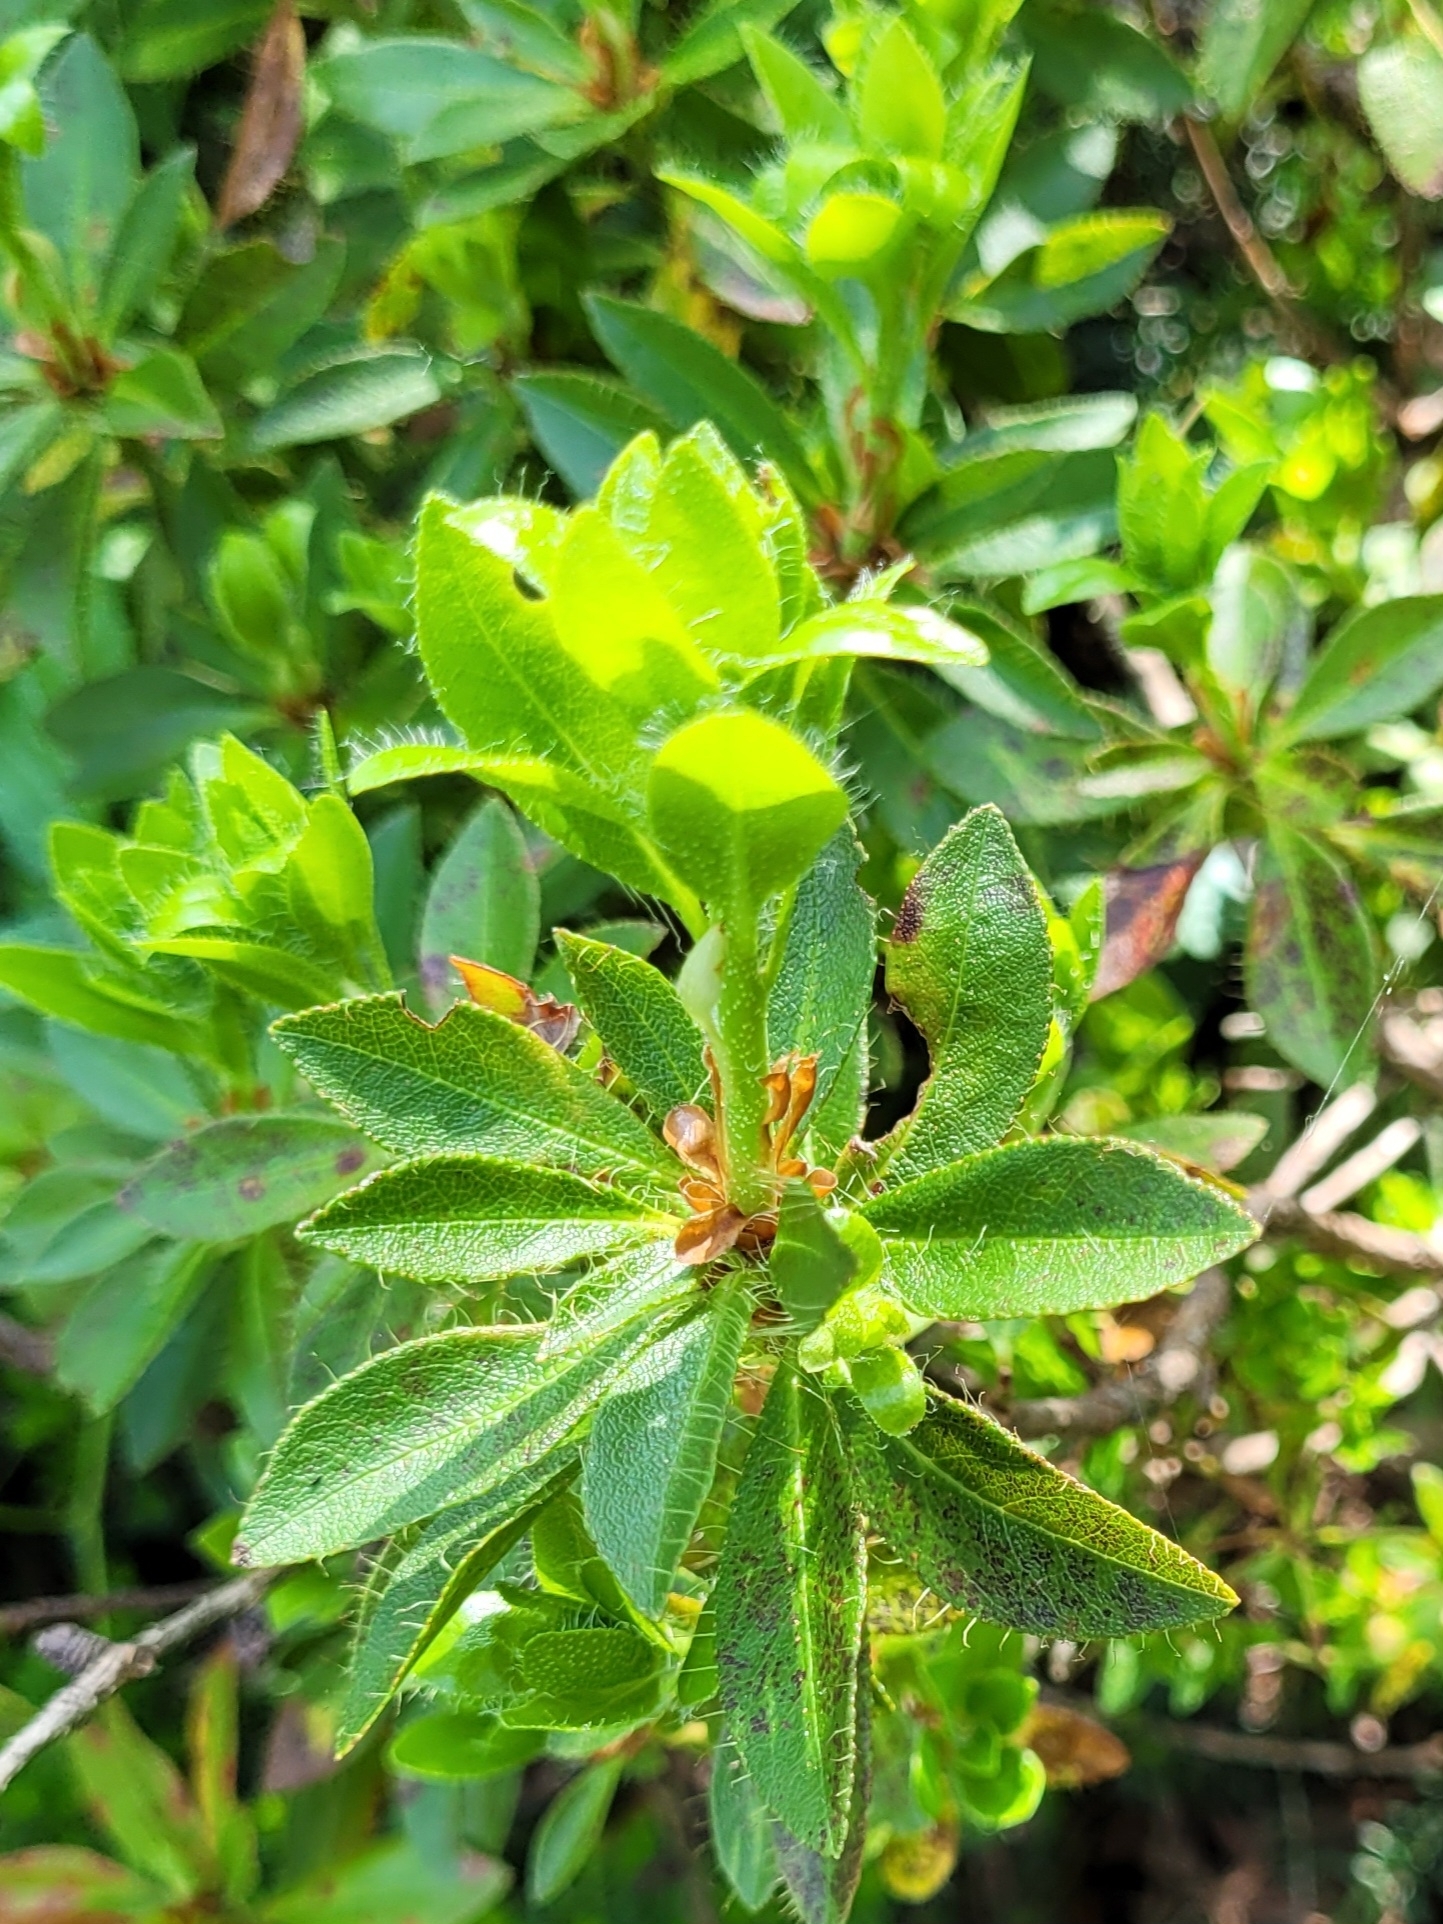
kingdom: Plantae
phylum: Tracheophyta
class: Magnoliopsida
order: Ericales
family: Ericaceae
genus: Rhododendron
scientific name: Rhododendron hirsutum
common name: Hairy alpenrose
